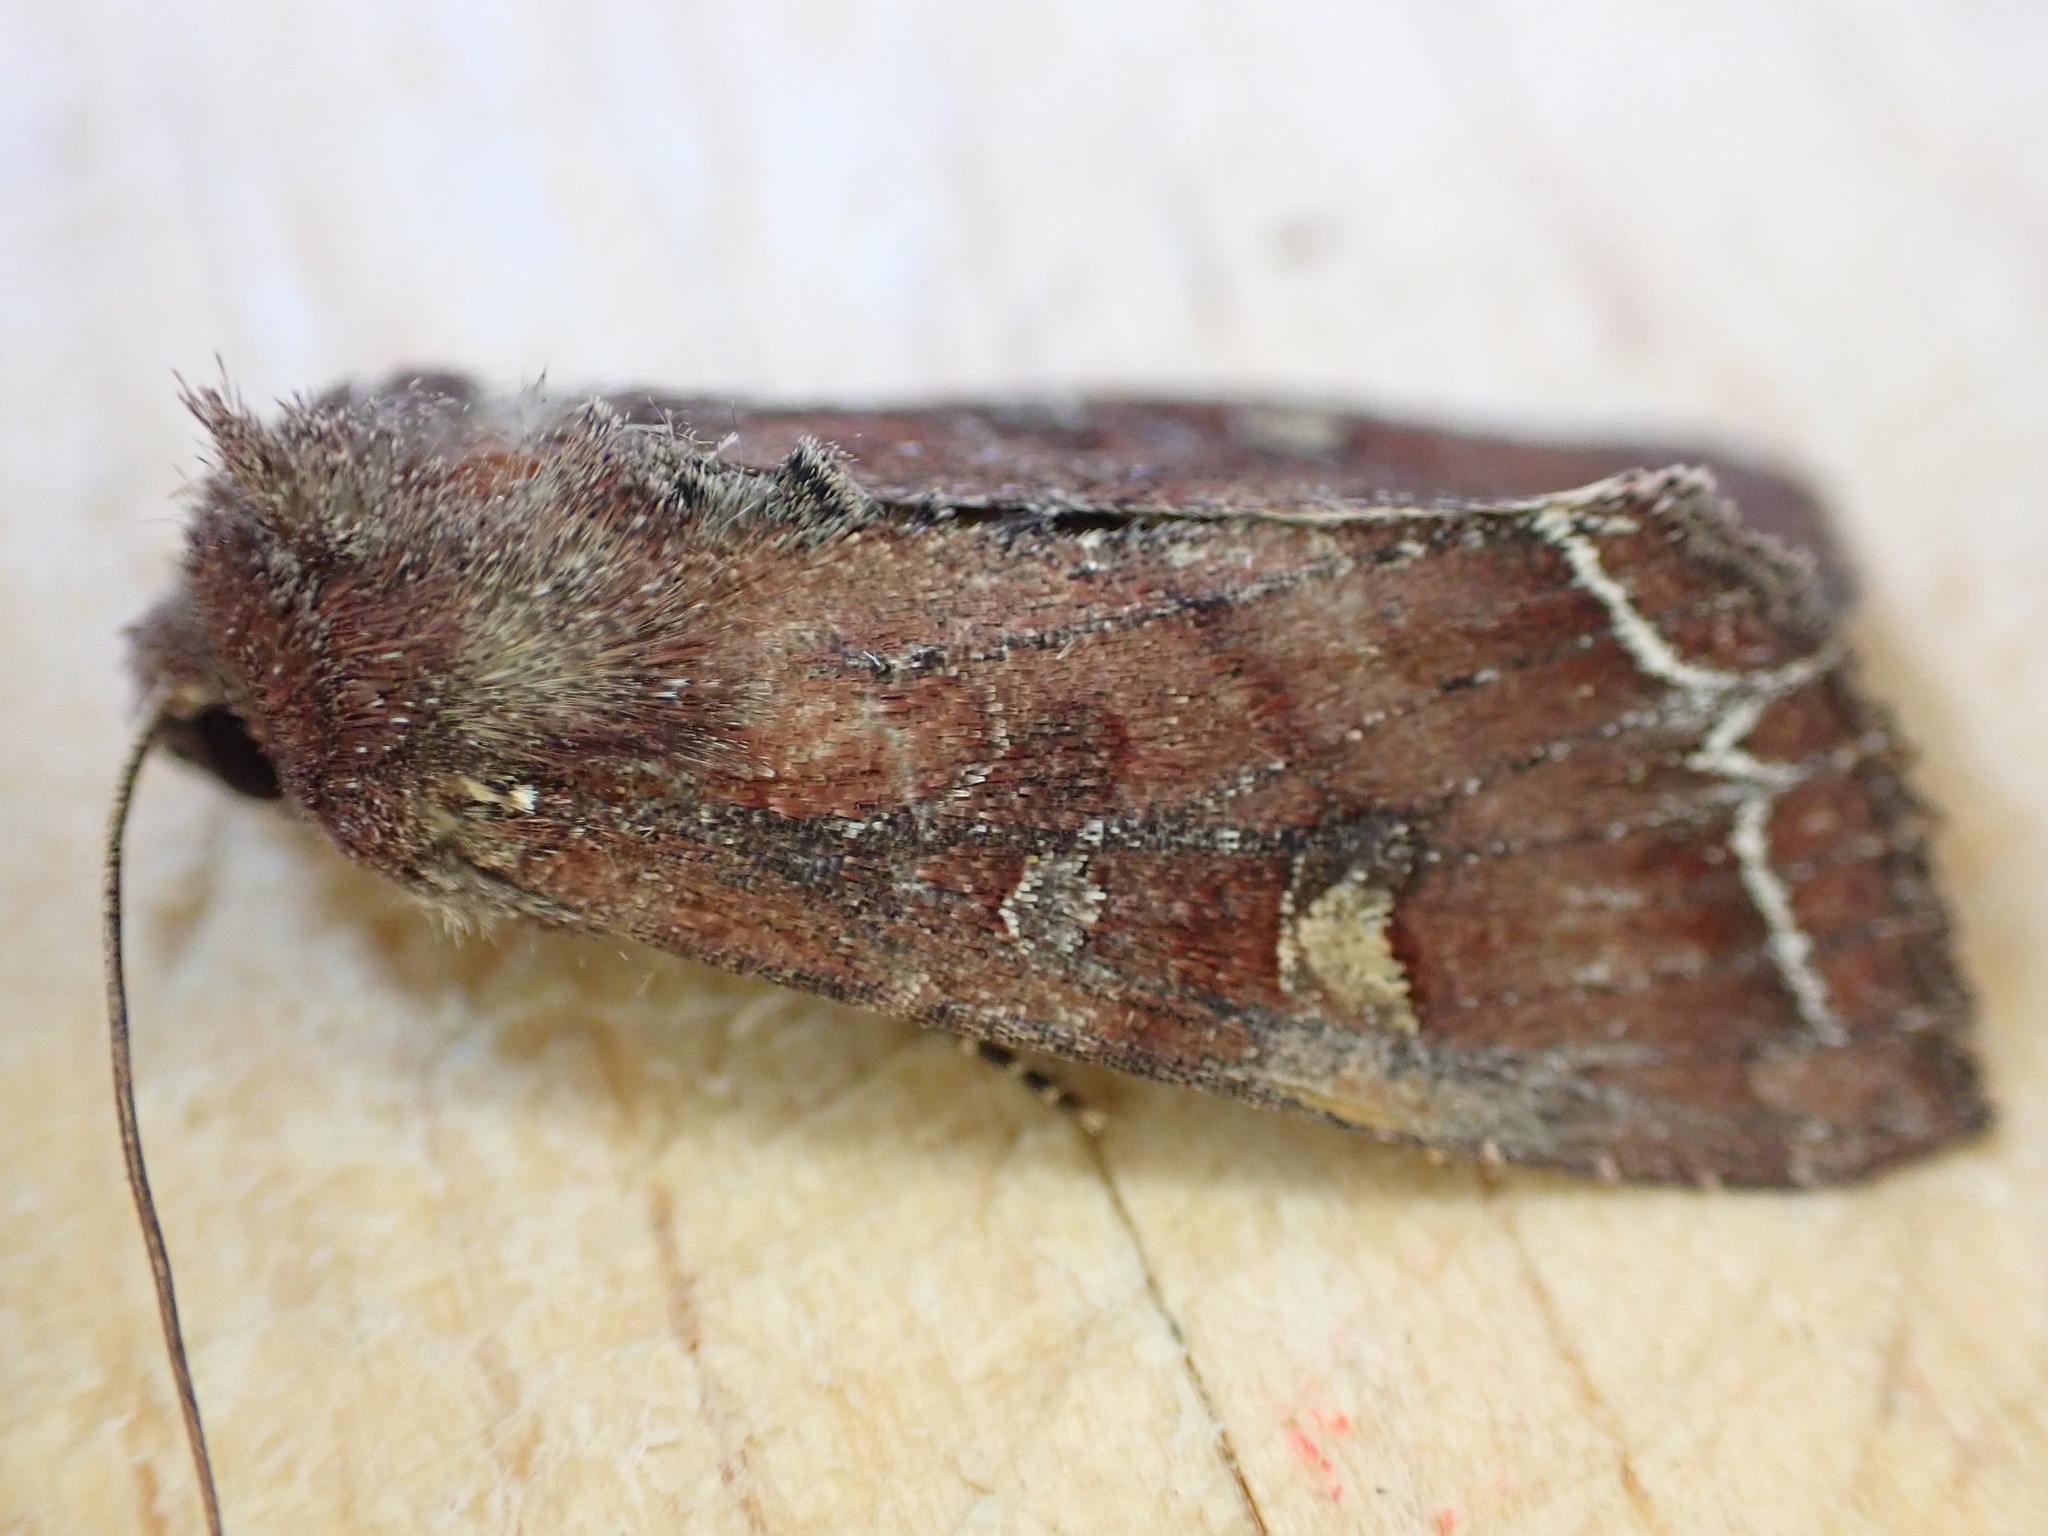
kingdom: Animalia
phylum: Arthropoda
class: Insecta
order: Lepidoptera
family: Noctuidae
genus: Lacanobia
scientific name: Lacanobia oleracea
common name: Bright-line brown-eye
